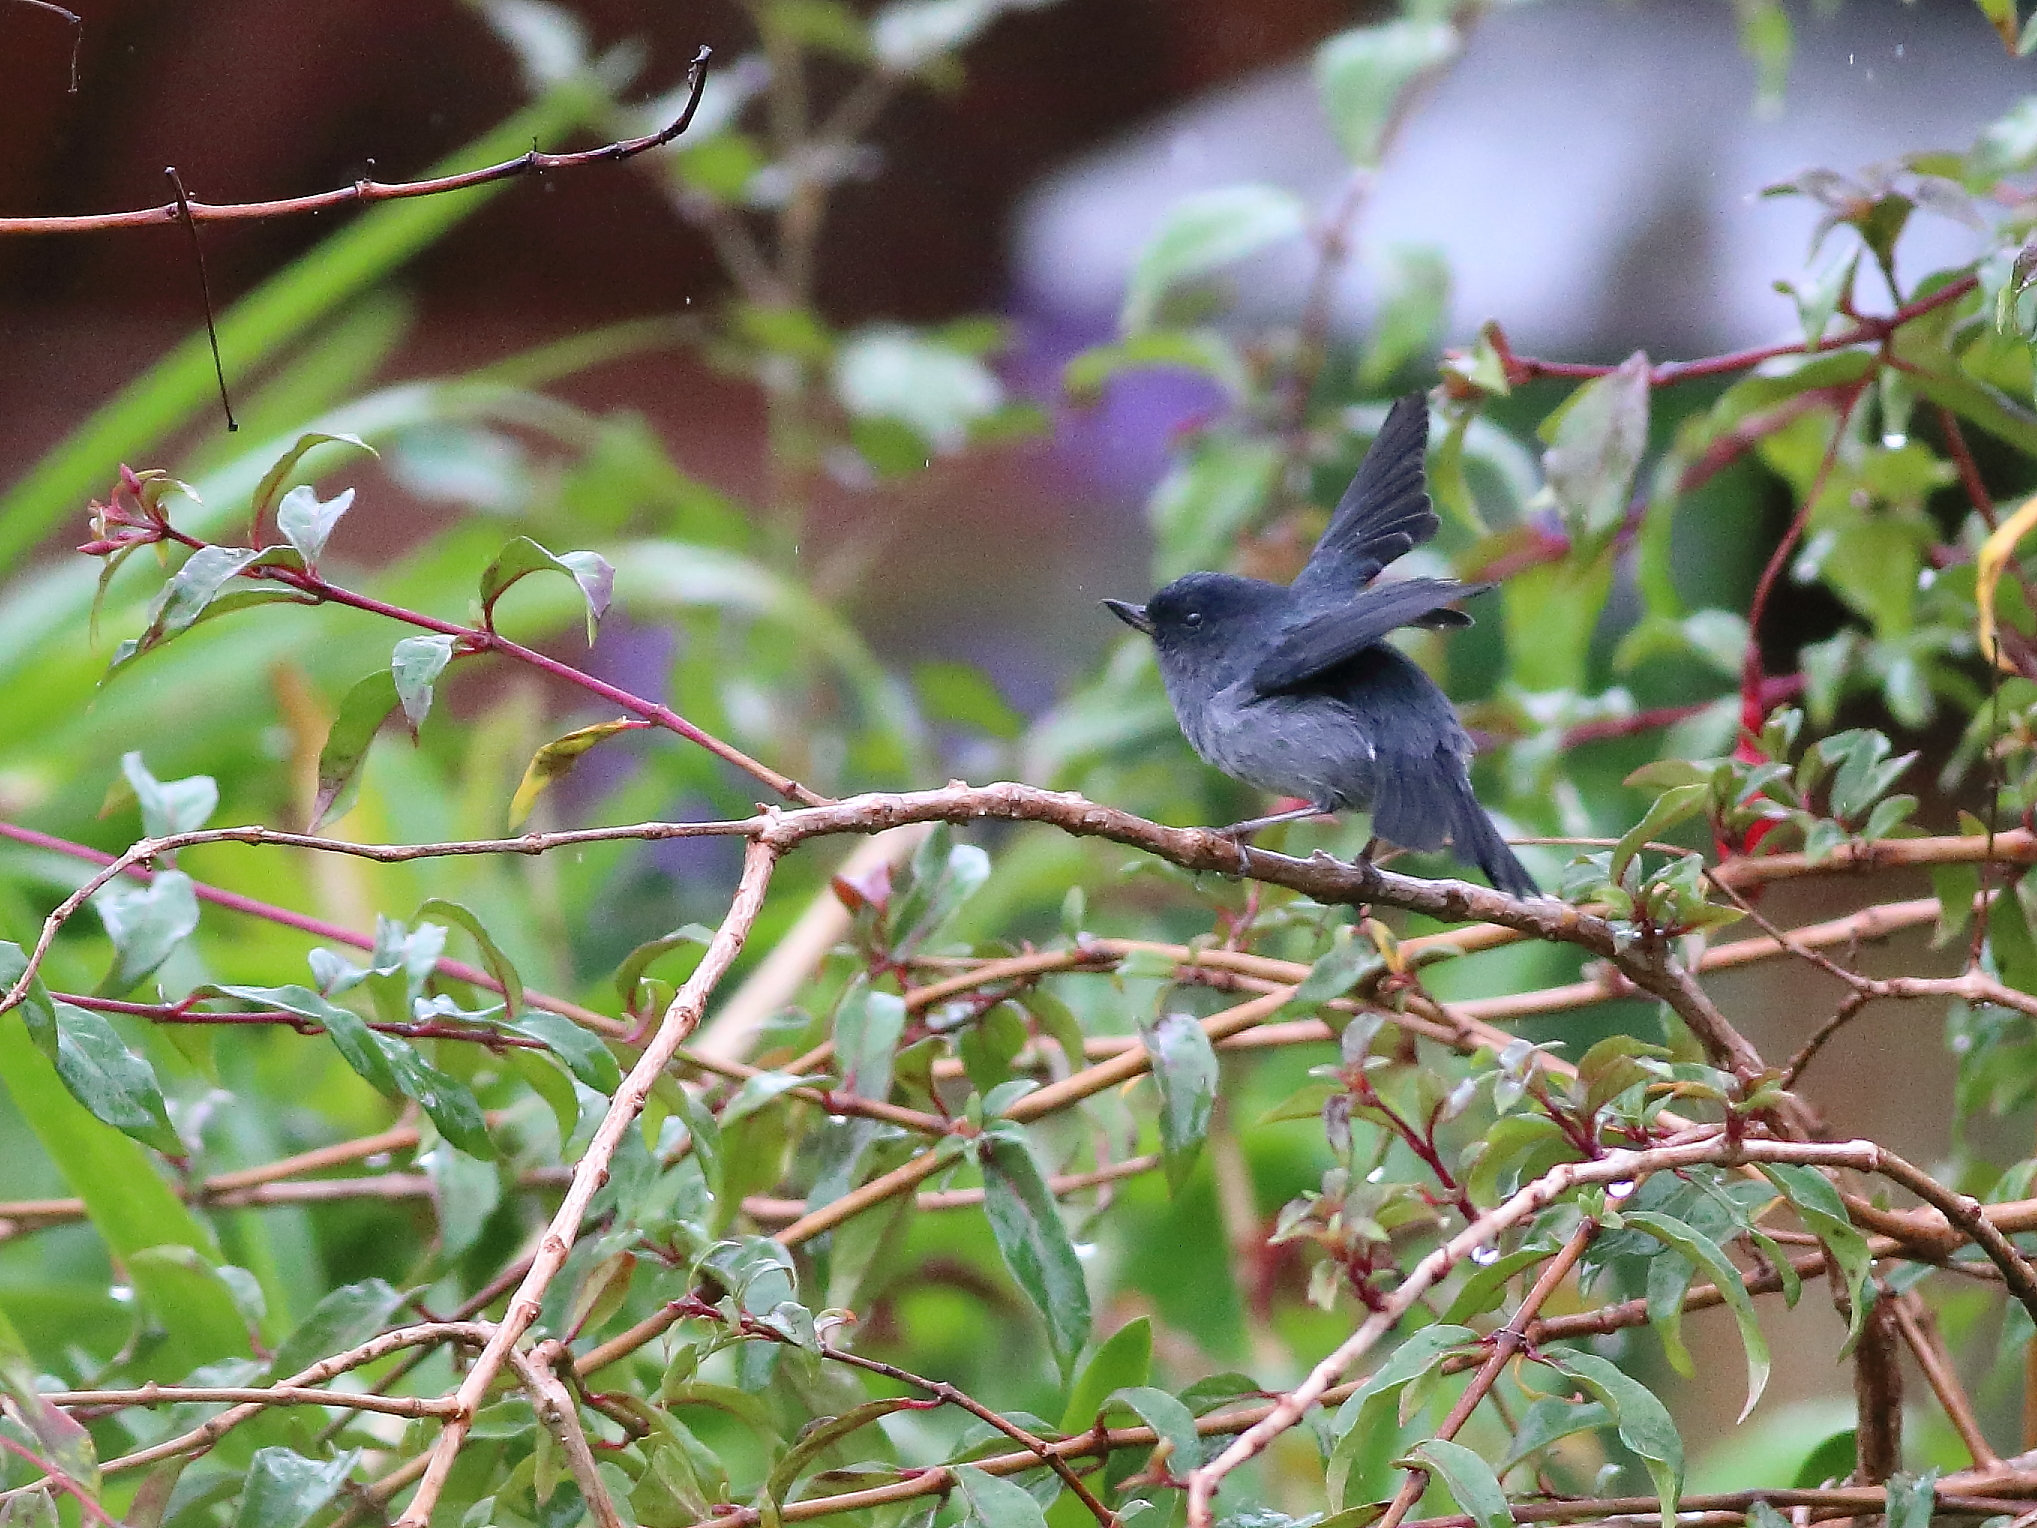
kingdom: Animalia
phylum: Chordata
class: Aves
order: Passeriformes
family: Thraupidae
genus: Diglossa
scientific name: Diglossa plumbea
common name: Slaty flowerpiercer
